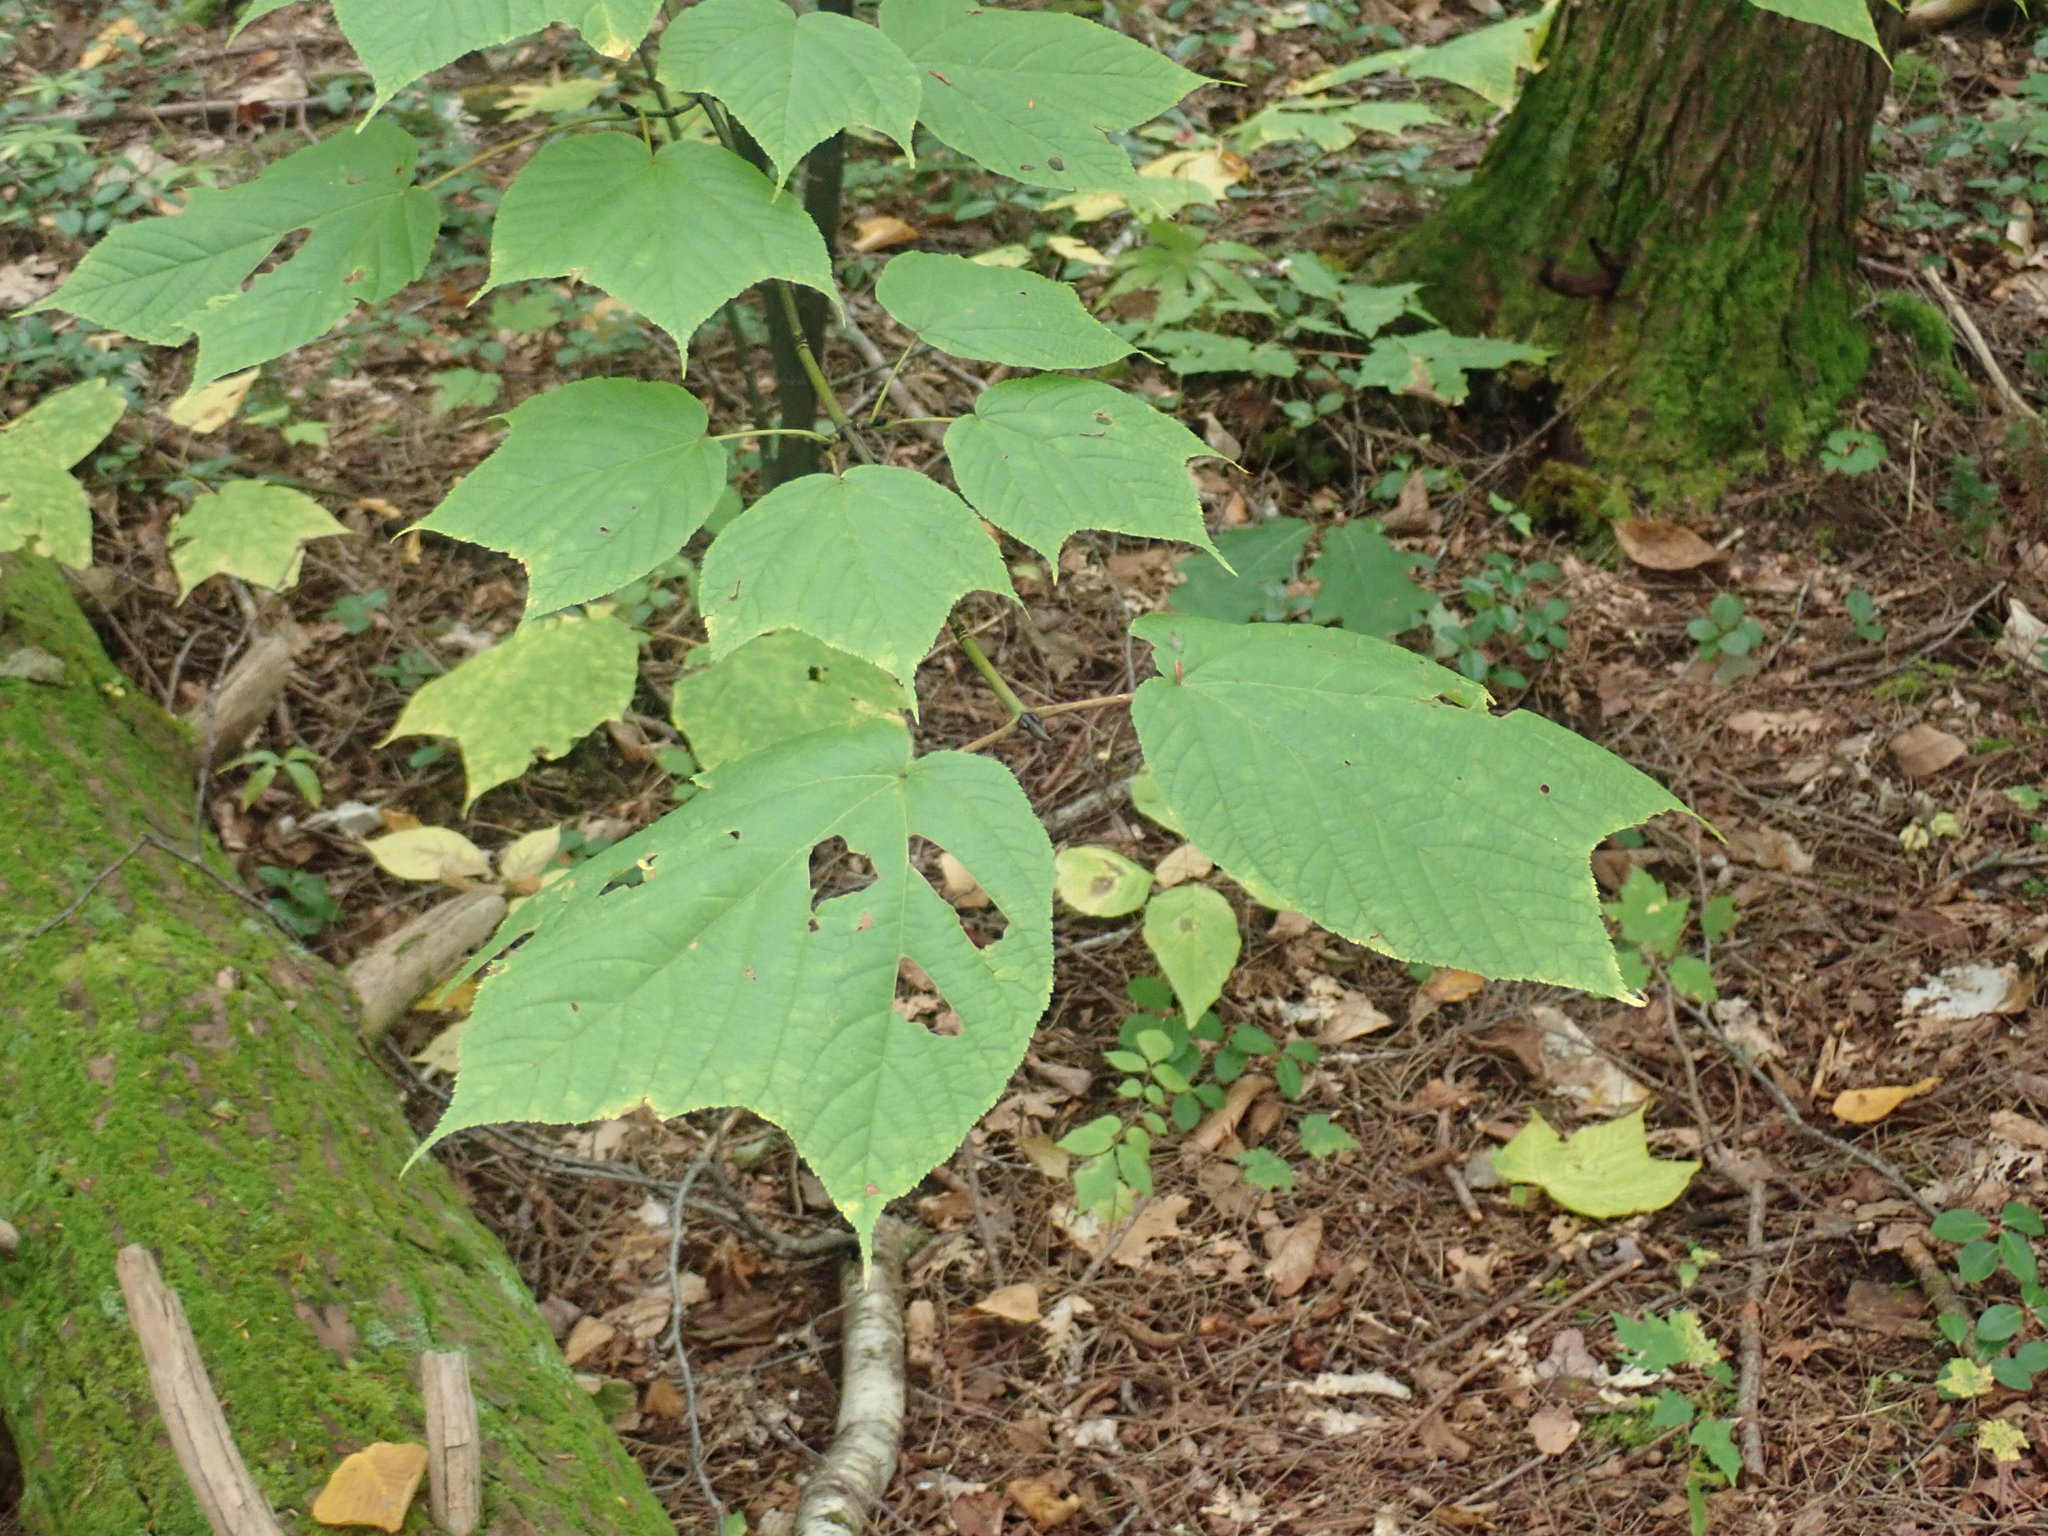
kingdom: Plantae
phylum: Tracheophyta
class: Magnoliopsida
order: Sapindales
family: Sapindaceae
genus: Acer
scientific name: Acer pensylvanicum
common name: Moosewood
